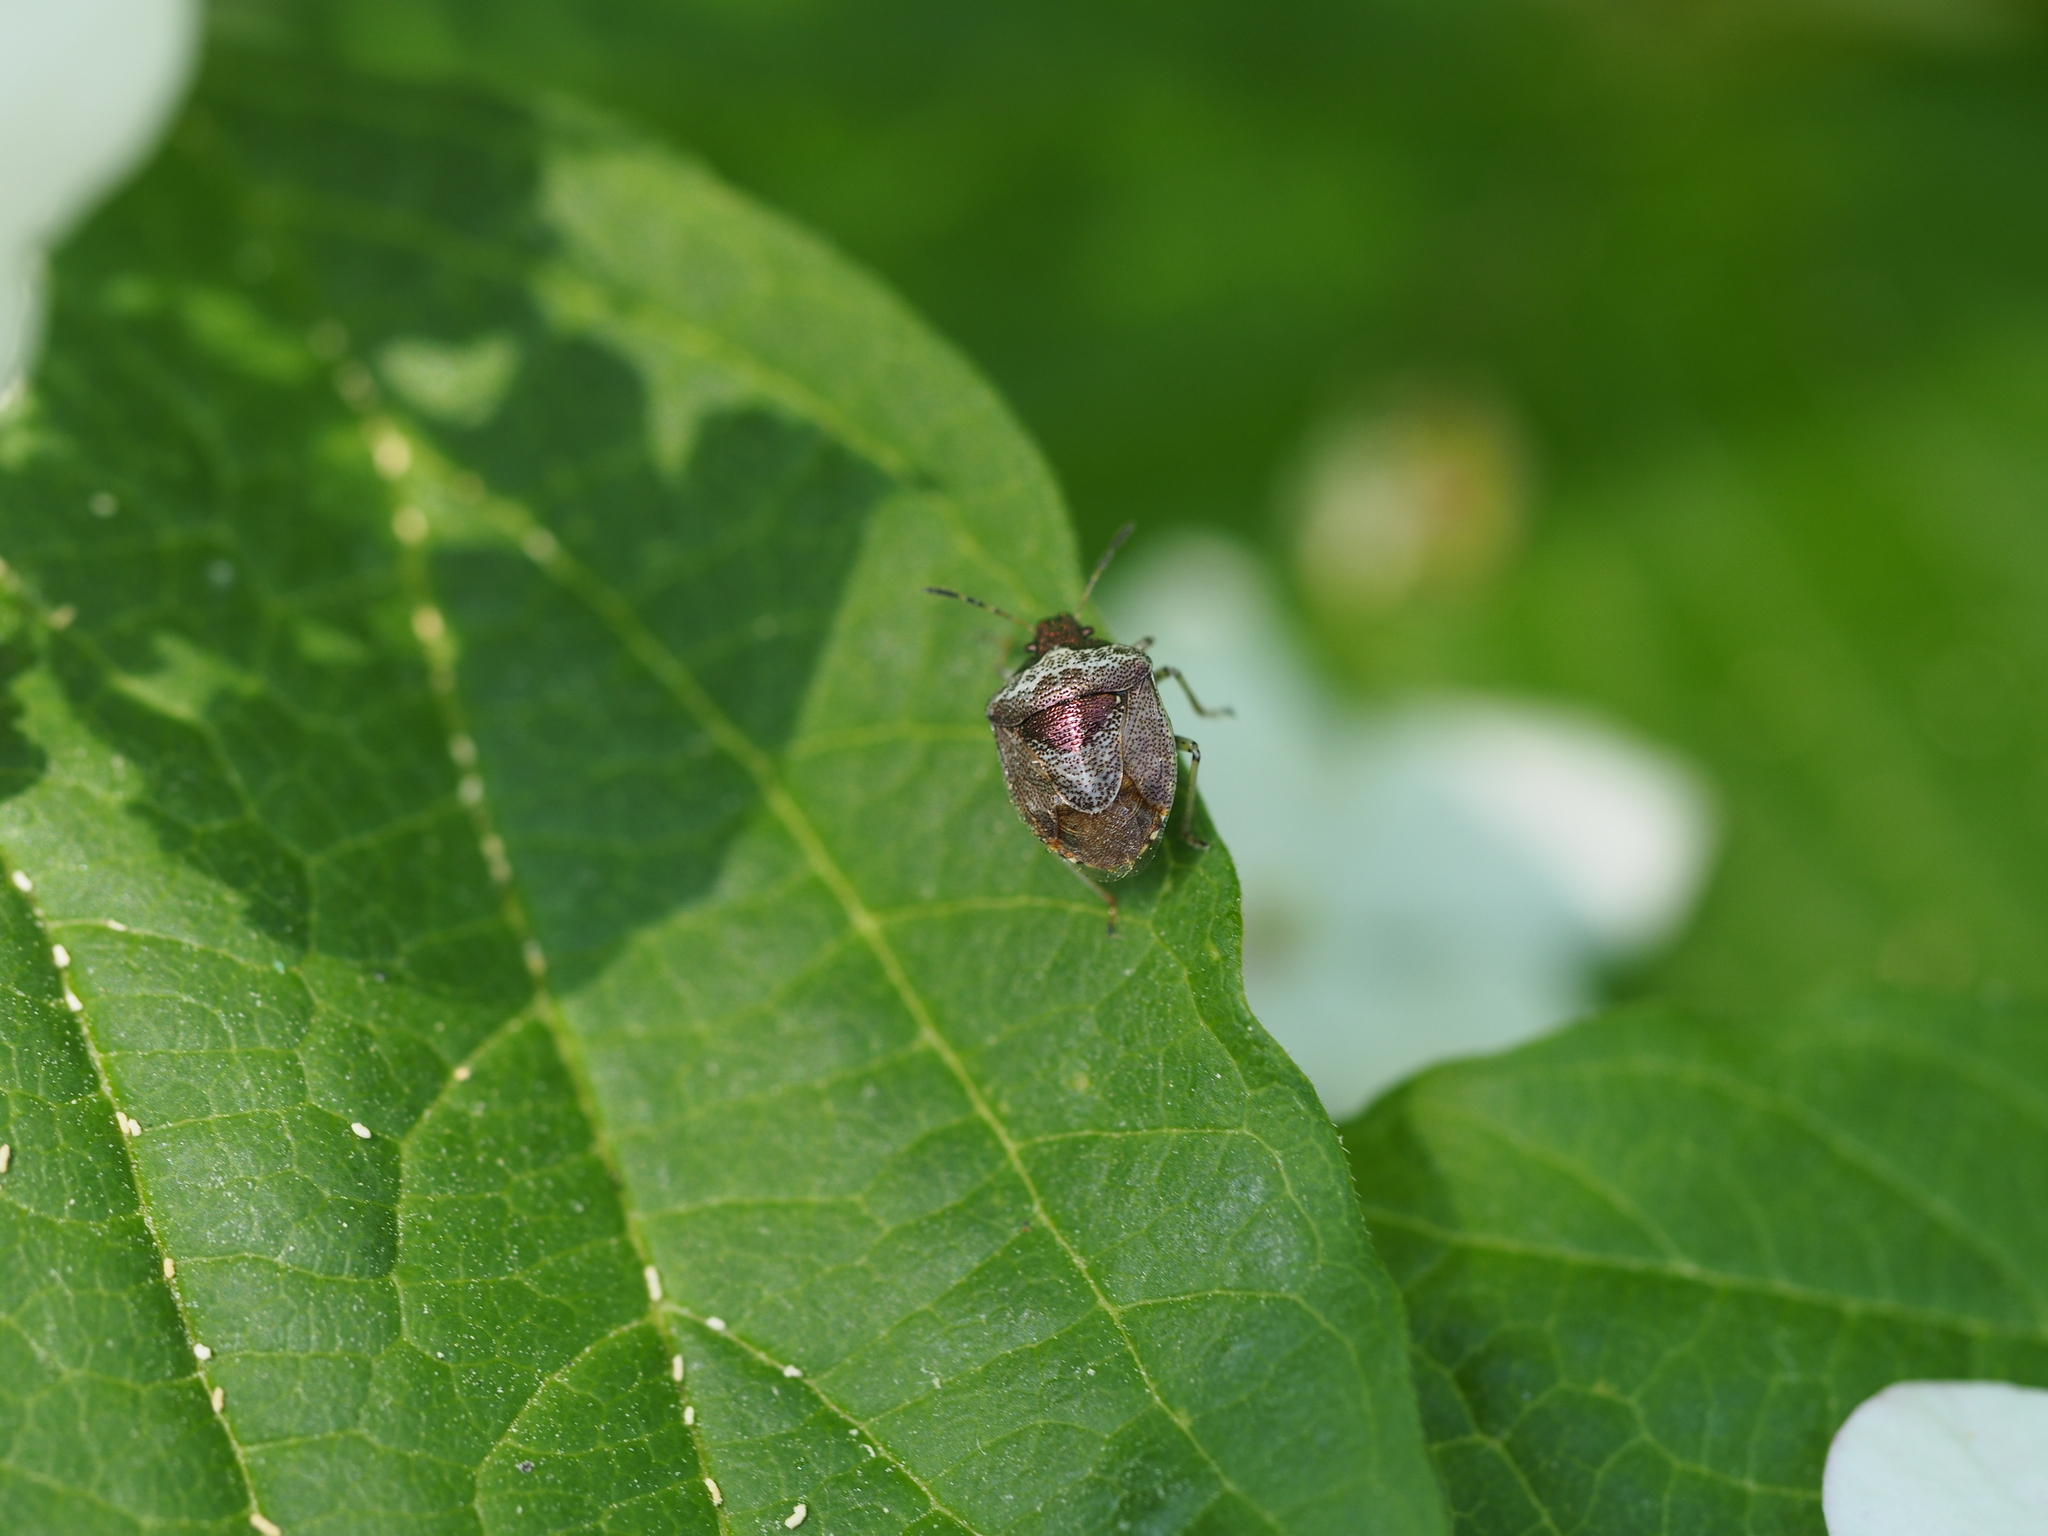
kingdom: Animalia
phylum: Arthropoda
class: Insecta
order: Hemiptera
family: Pentatomidae
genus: Eysarcoris
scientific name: Eysarcoris venustissimus
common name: Woundwort shieldbug
